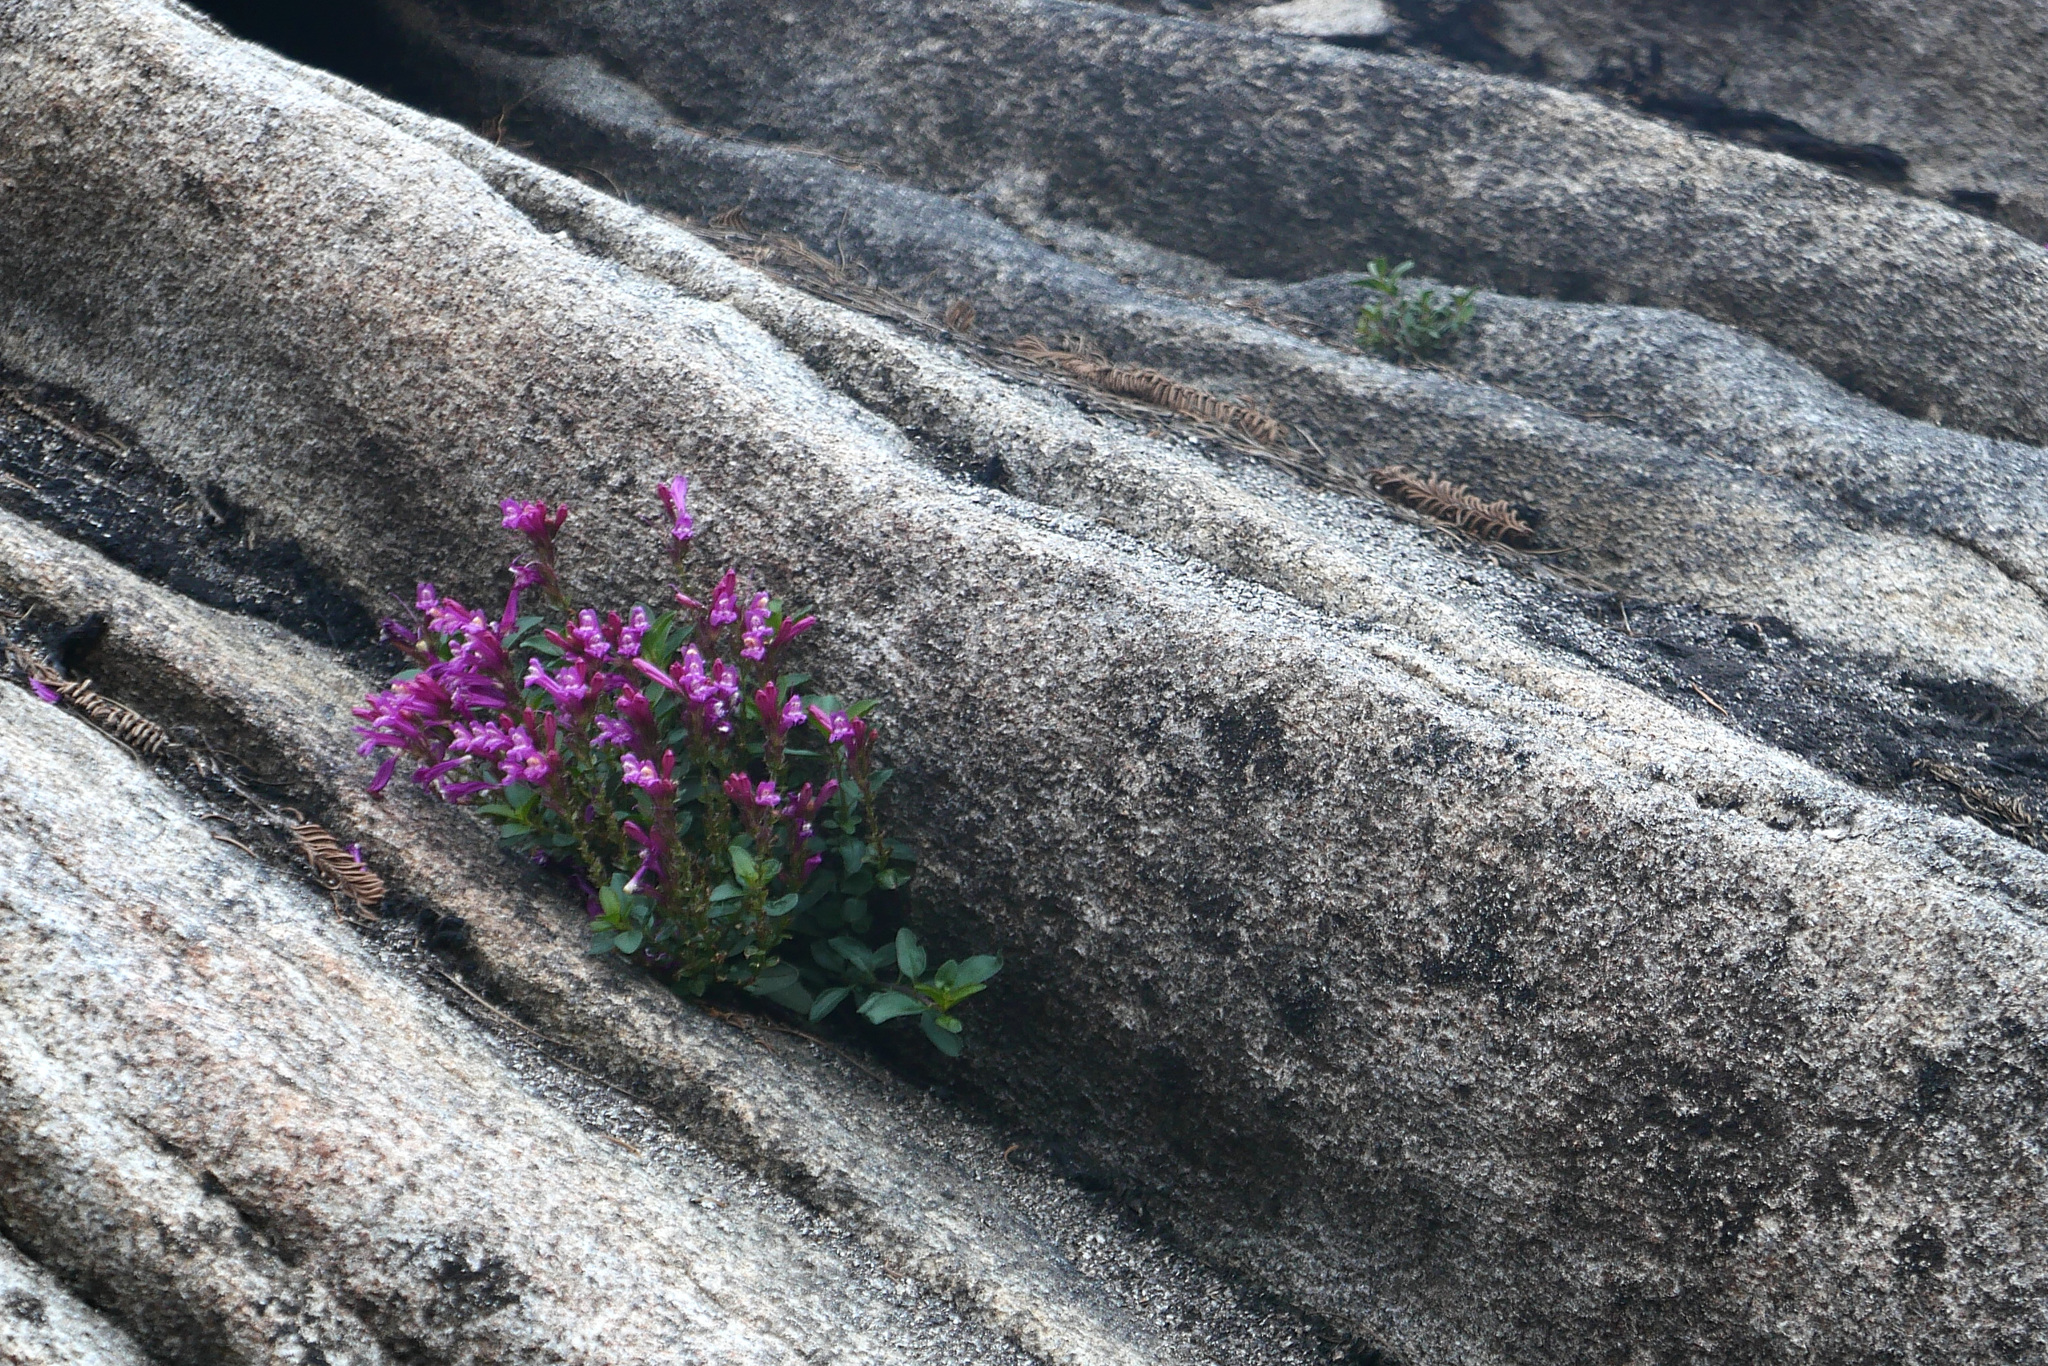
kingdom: Plantae
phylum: Tracheophyta
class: Magnoliopsida
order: Lamiales
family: Plantaginaceae
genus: Penstemon
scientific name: Penstemon newberryi
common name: Mountain-pride
